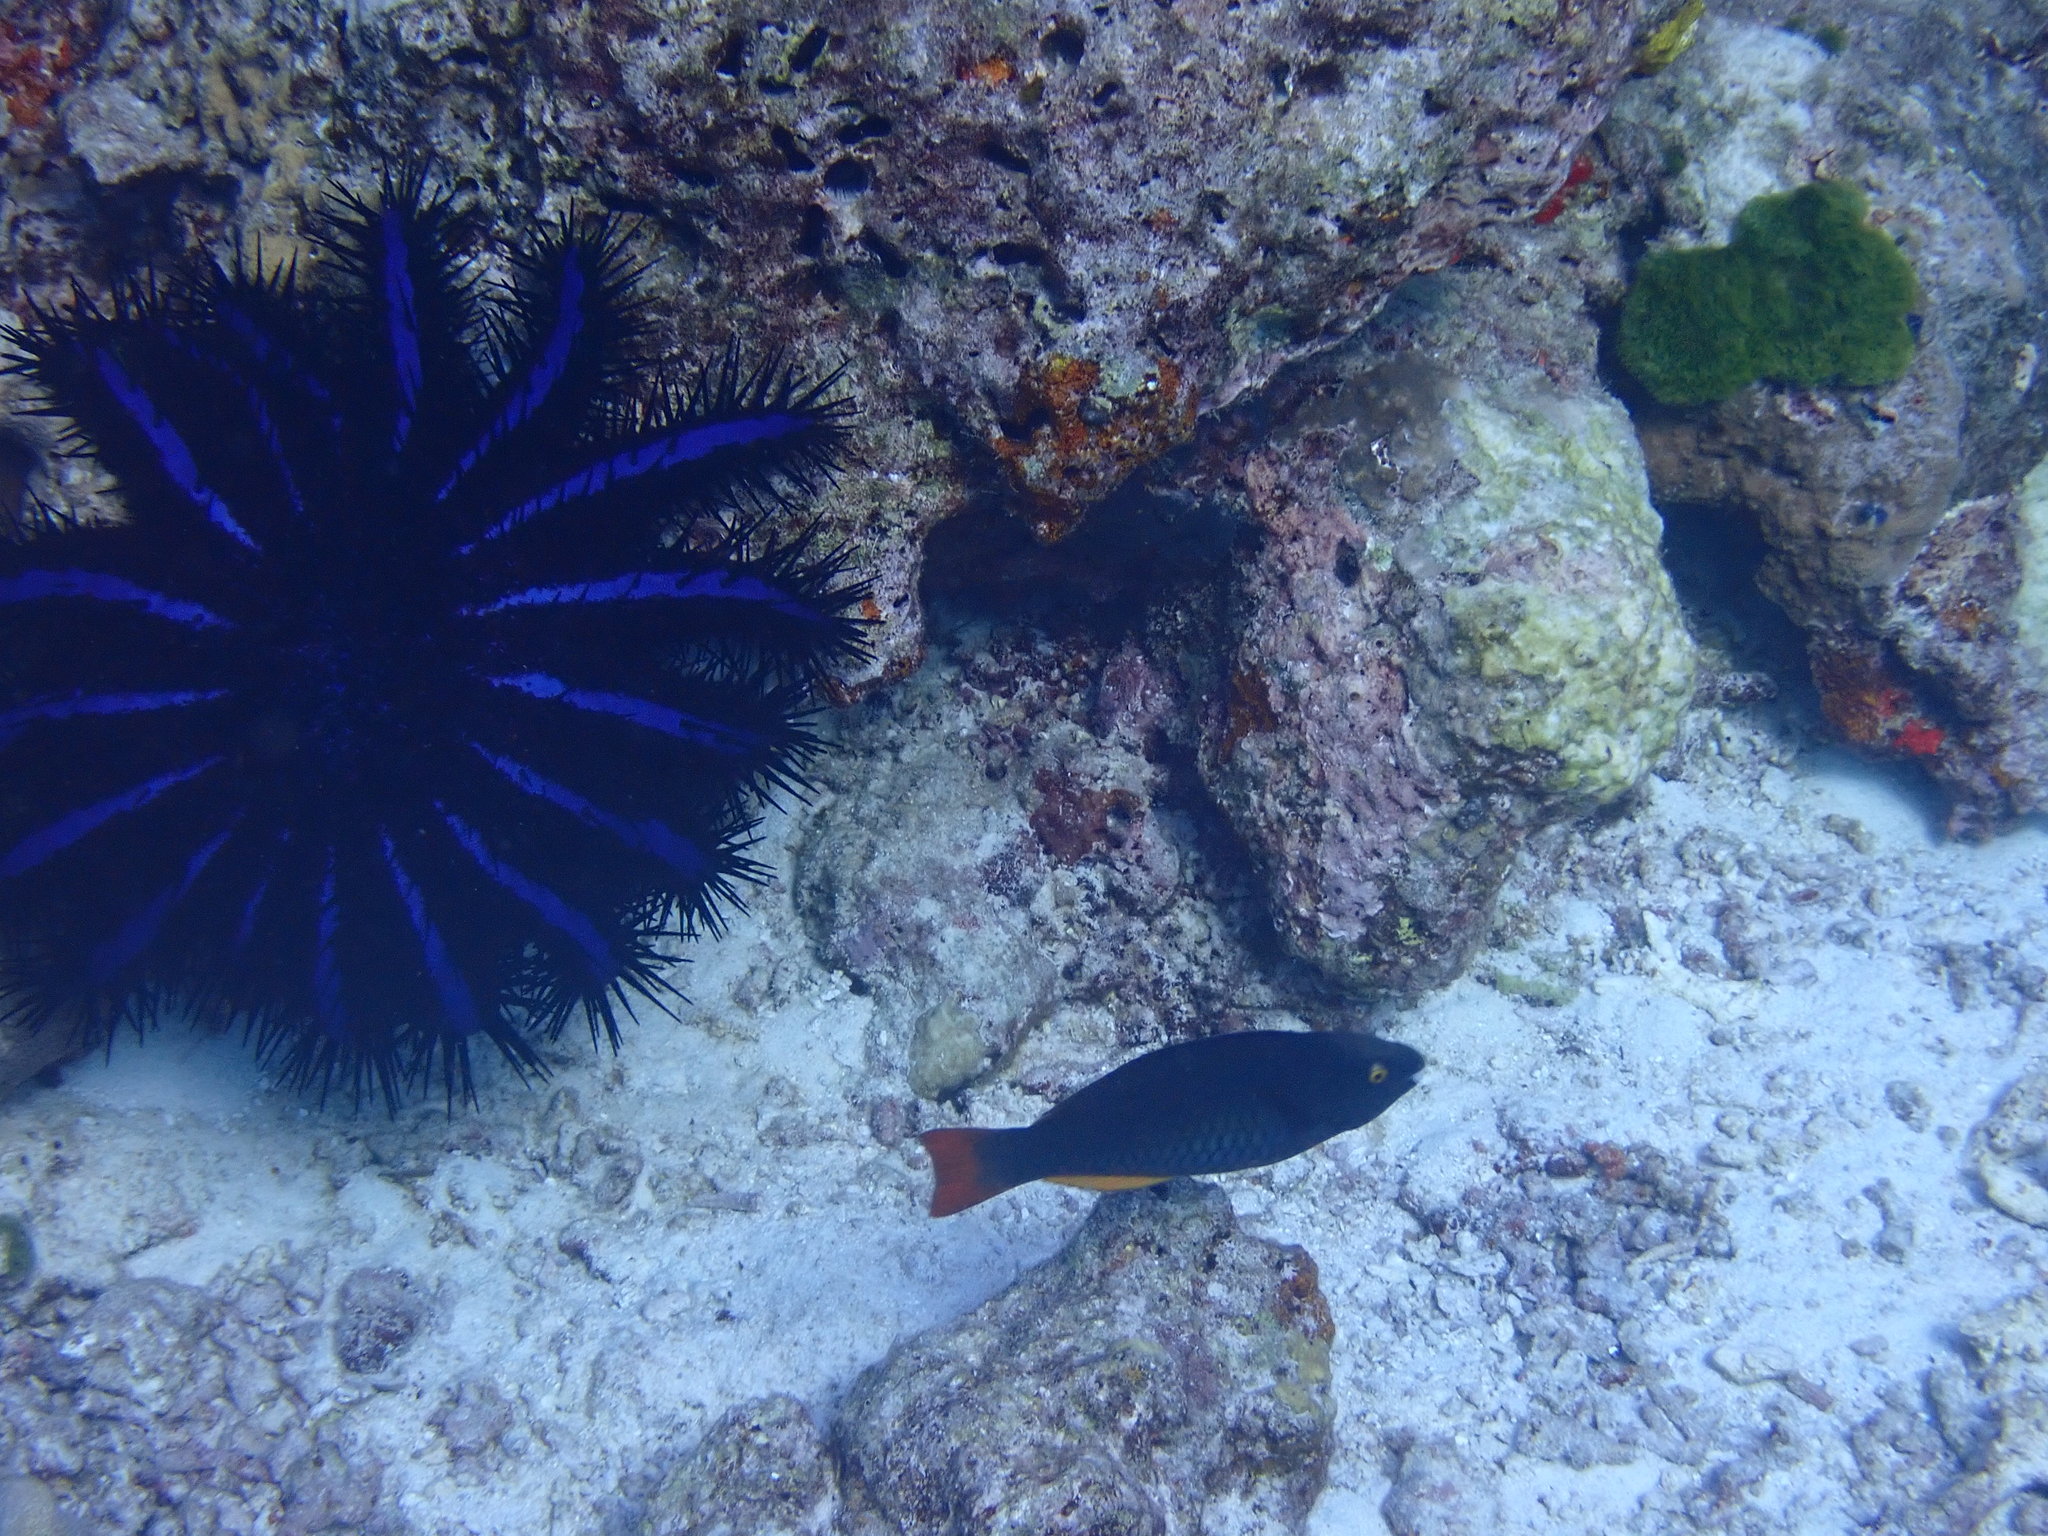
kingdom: Animalia
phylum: Chordata
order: Perciformes
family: Scaridae
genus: Scarus
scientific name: Scarus tricolor
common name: Tricolour parrotfish
